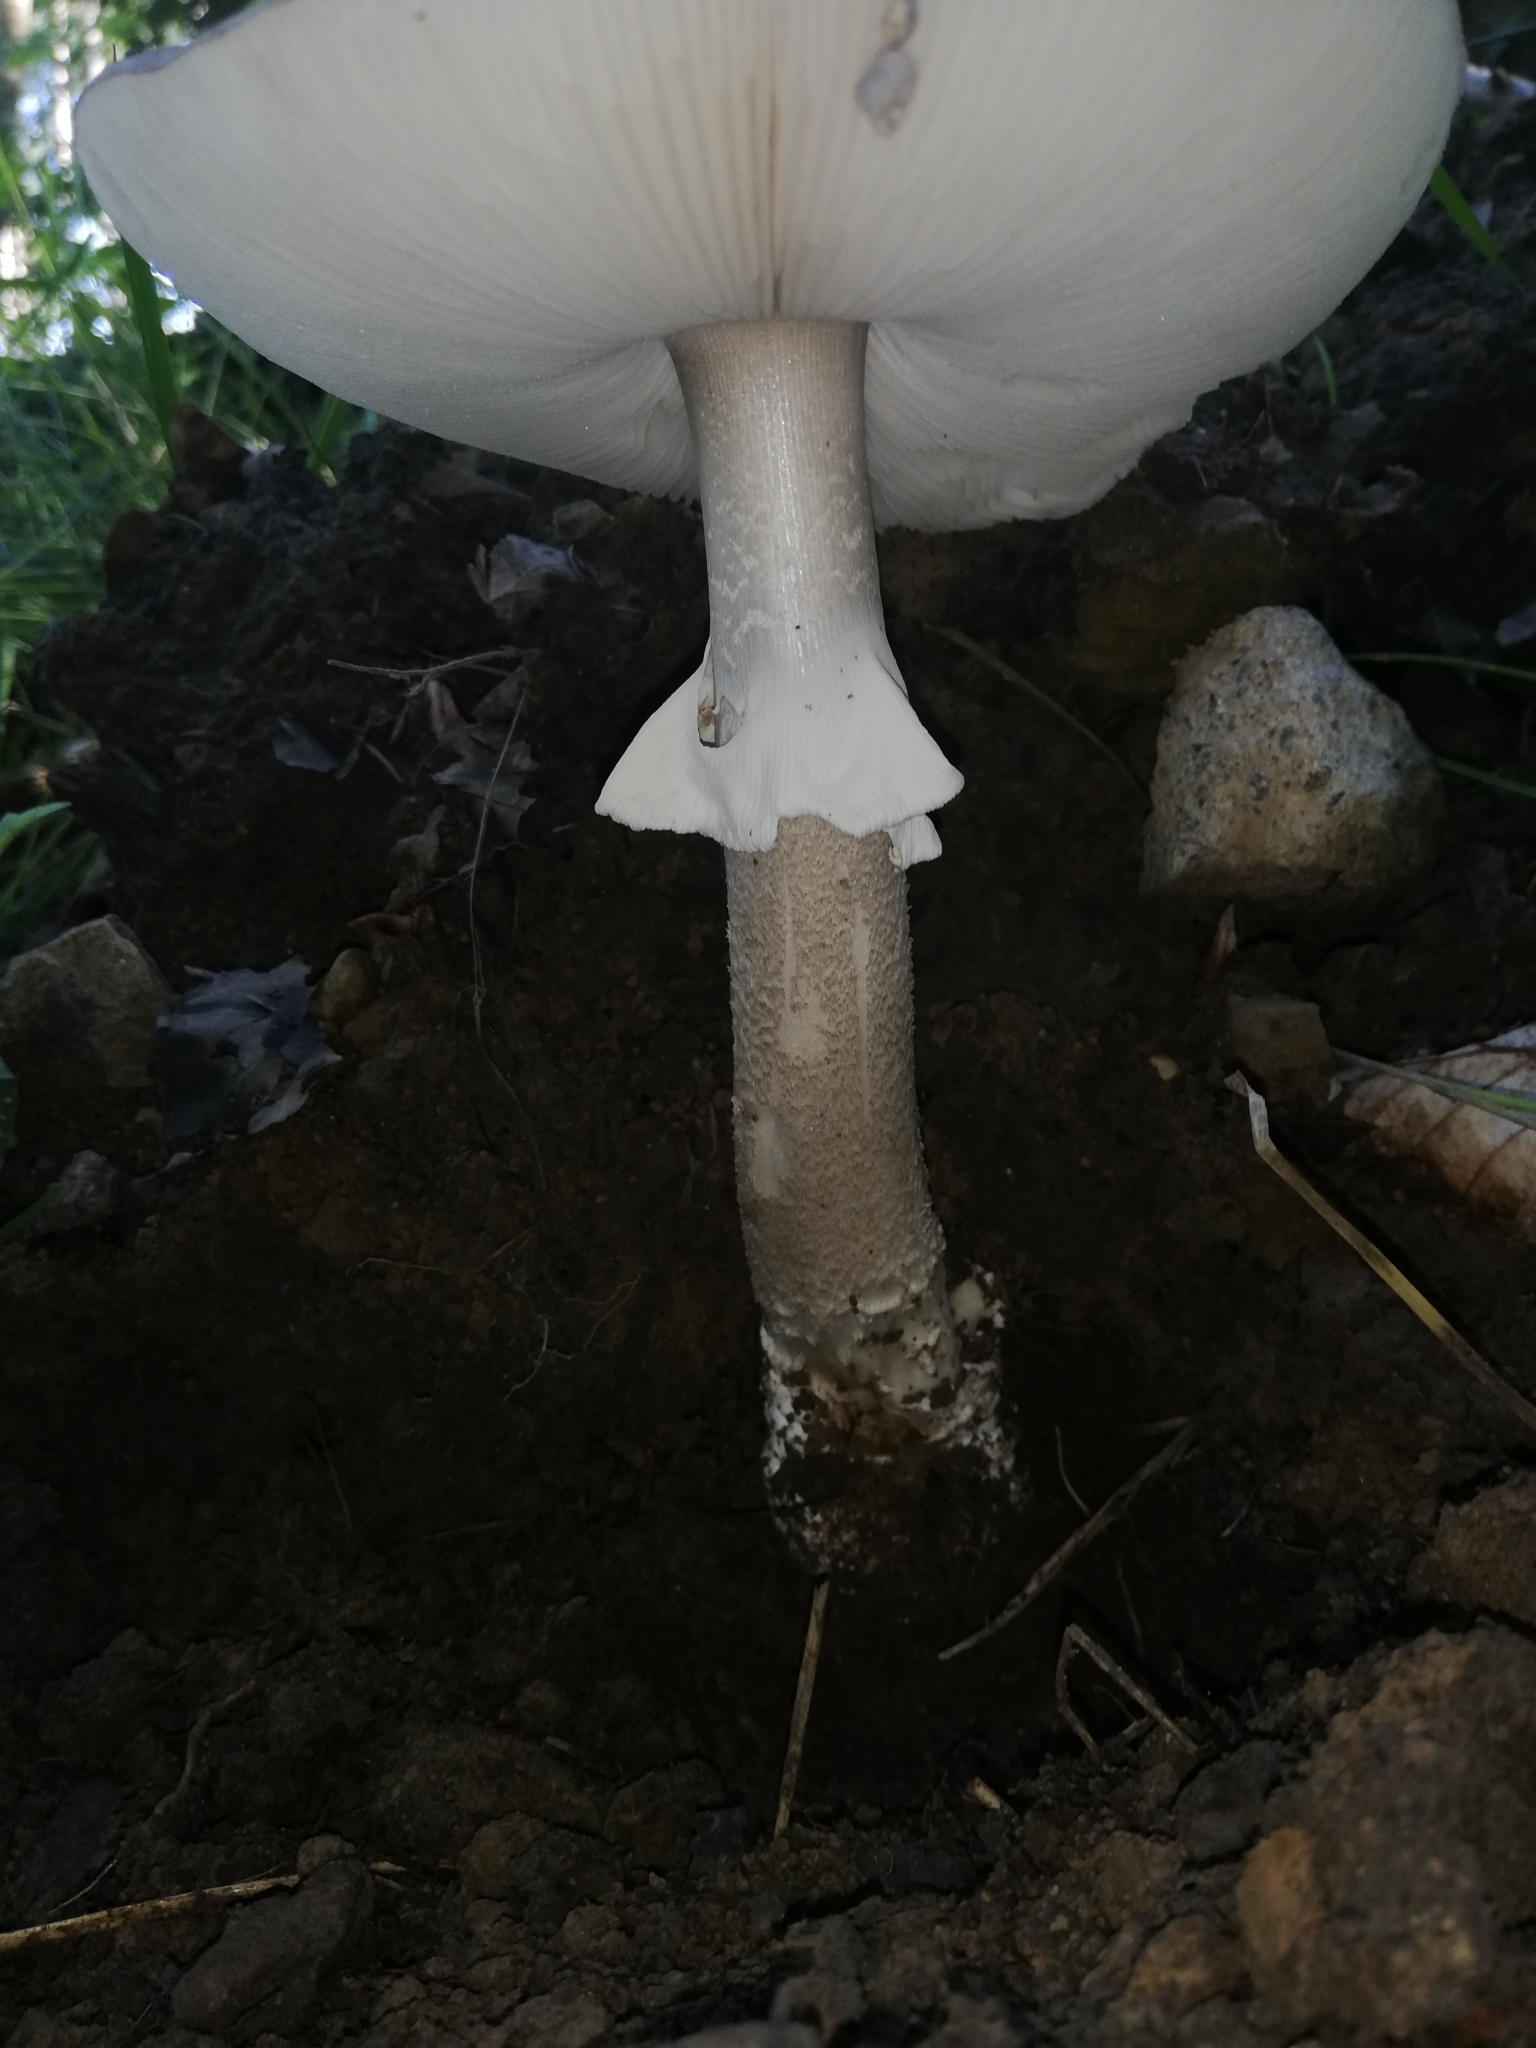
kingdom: Fungi
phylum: Basidiomycota
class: Agaricomycetes
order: Agaricales
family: Amanitaceae
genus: Amanita
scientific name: Amanita excelsa
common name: European false blusher
